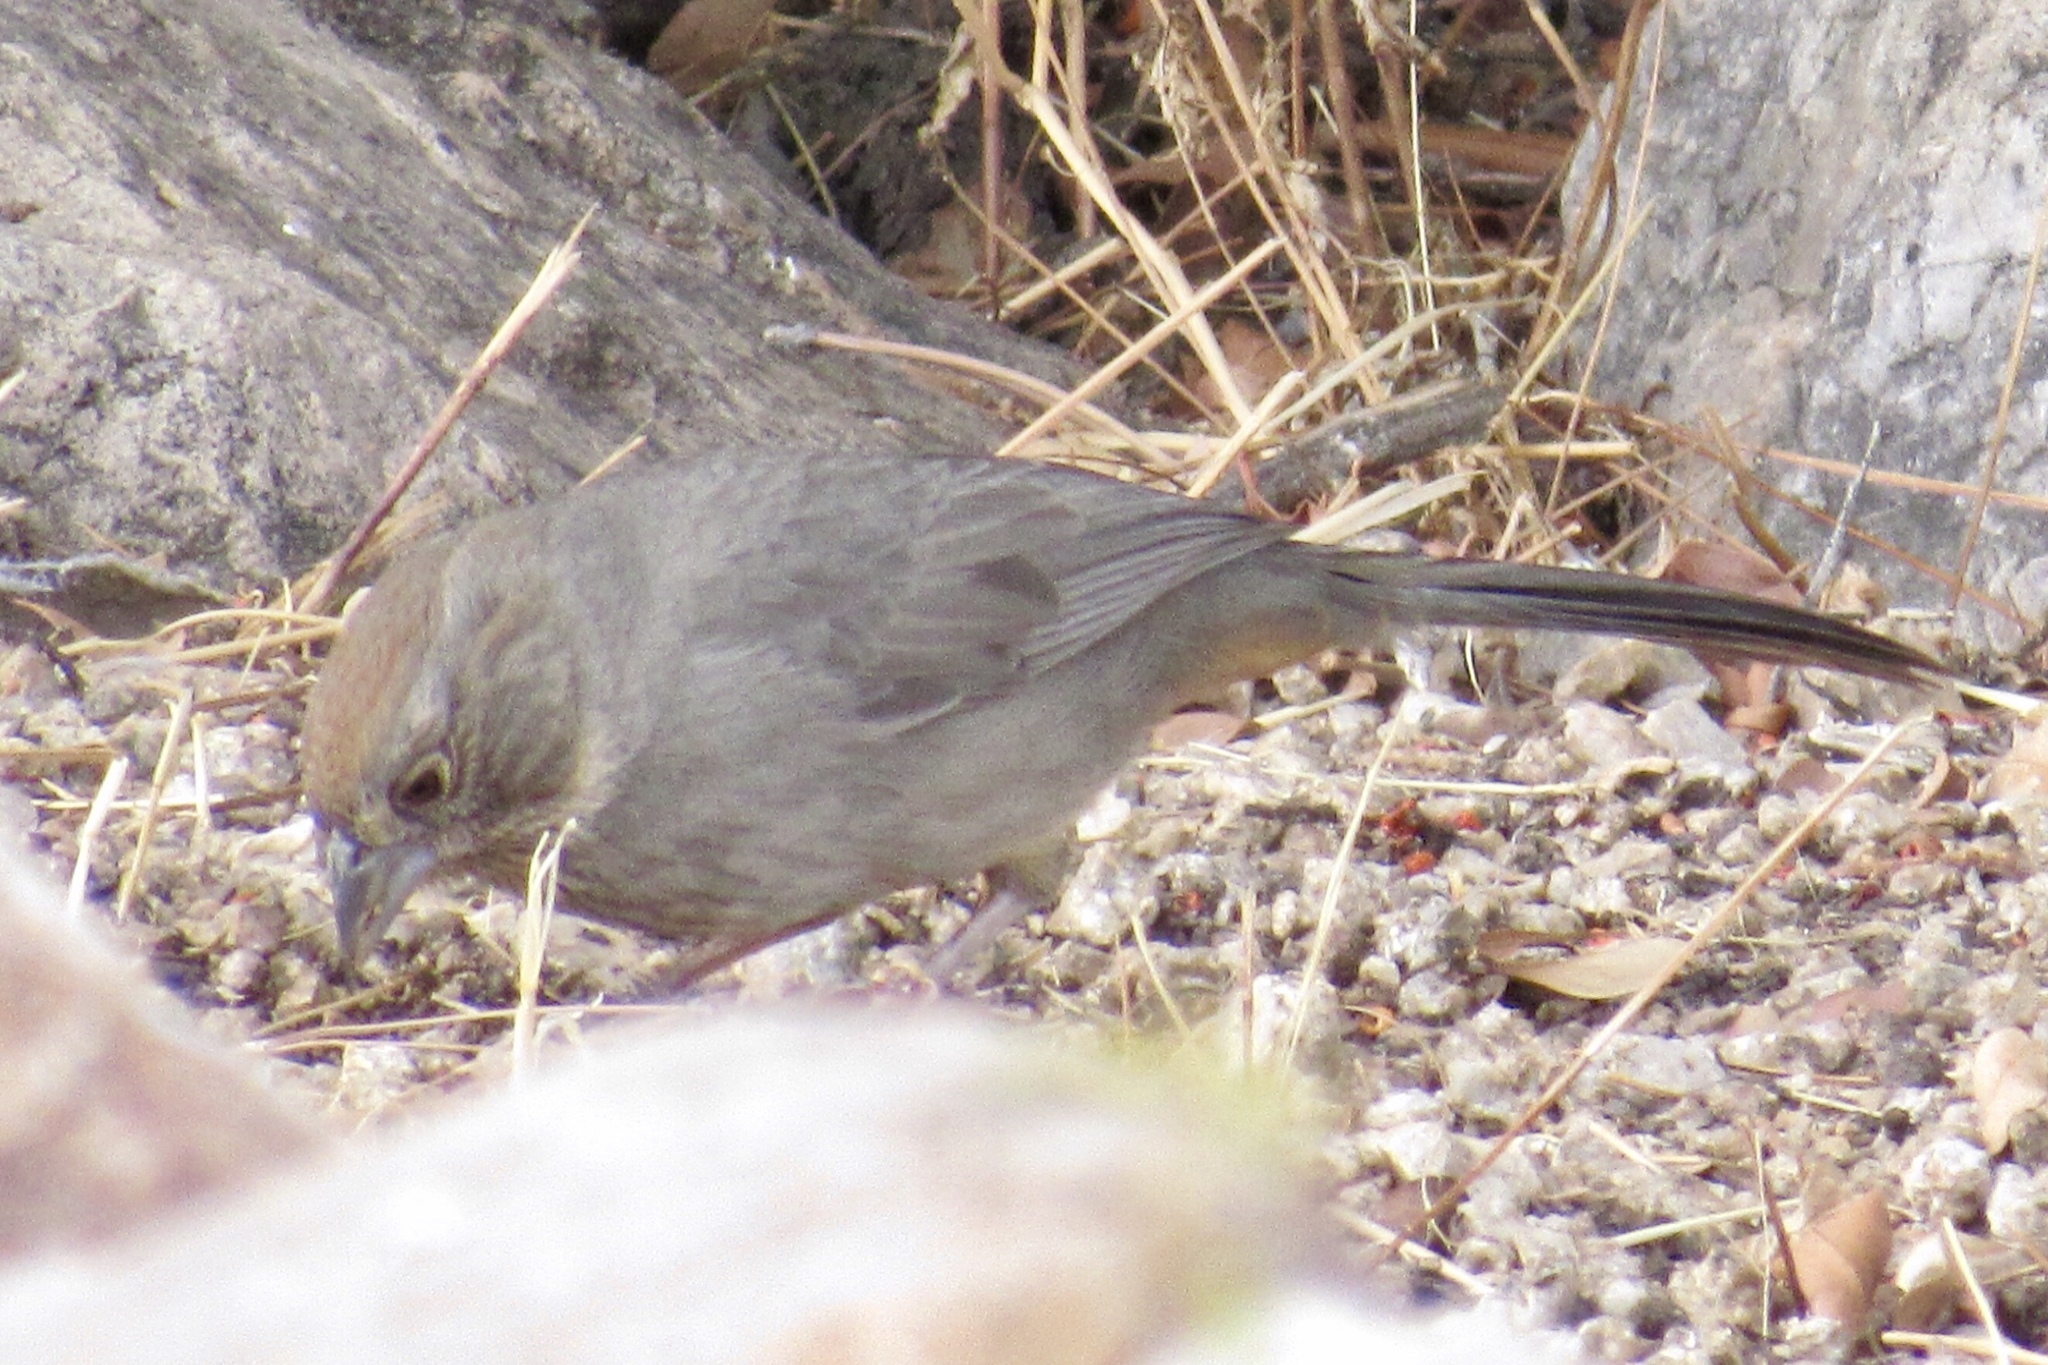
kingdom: Animalia
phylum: Chordata
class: Aves
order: Passeriformes
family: Passerellidae
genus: Melozone
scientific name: Melozone fusca
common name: Canyon towhee
